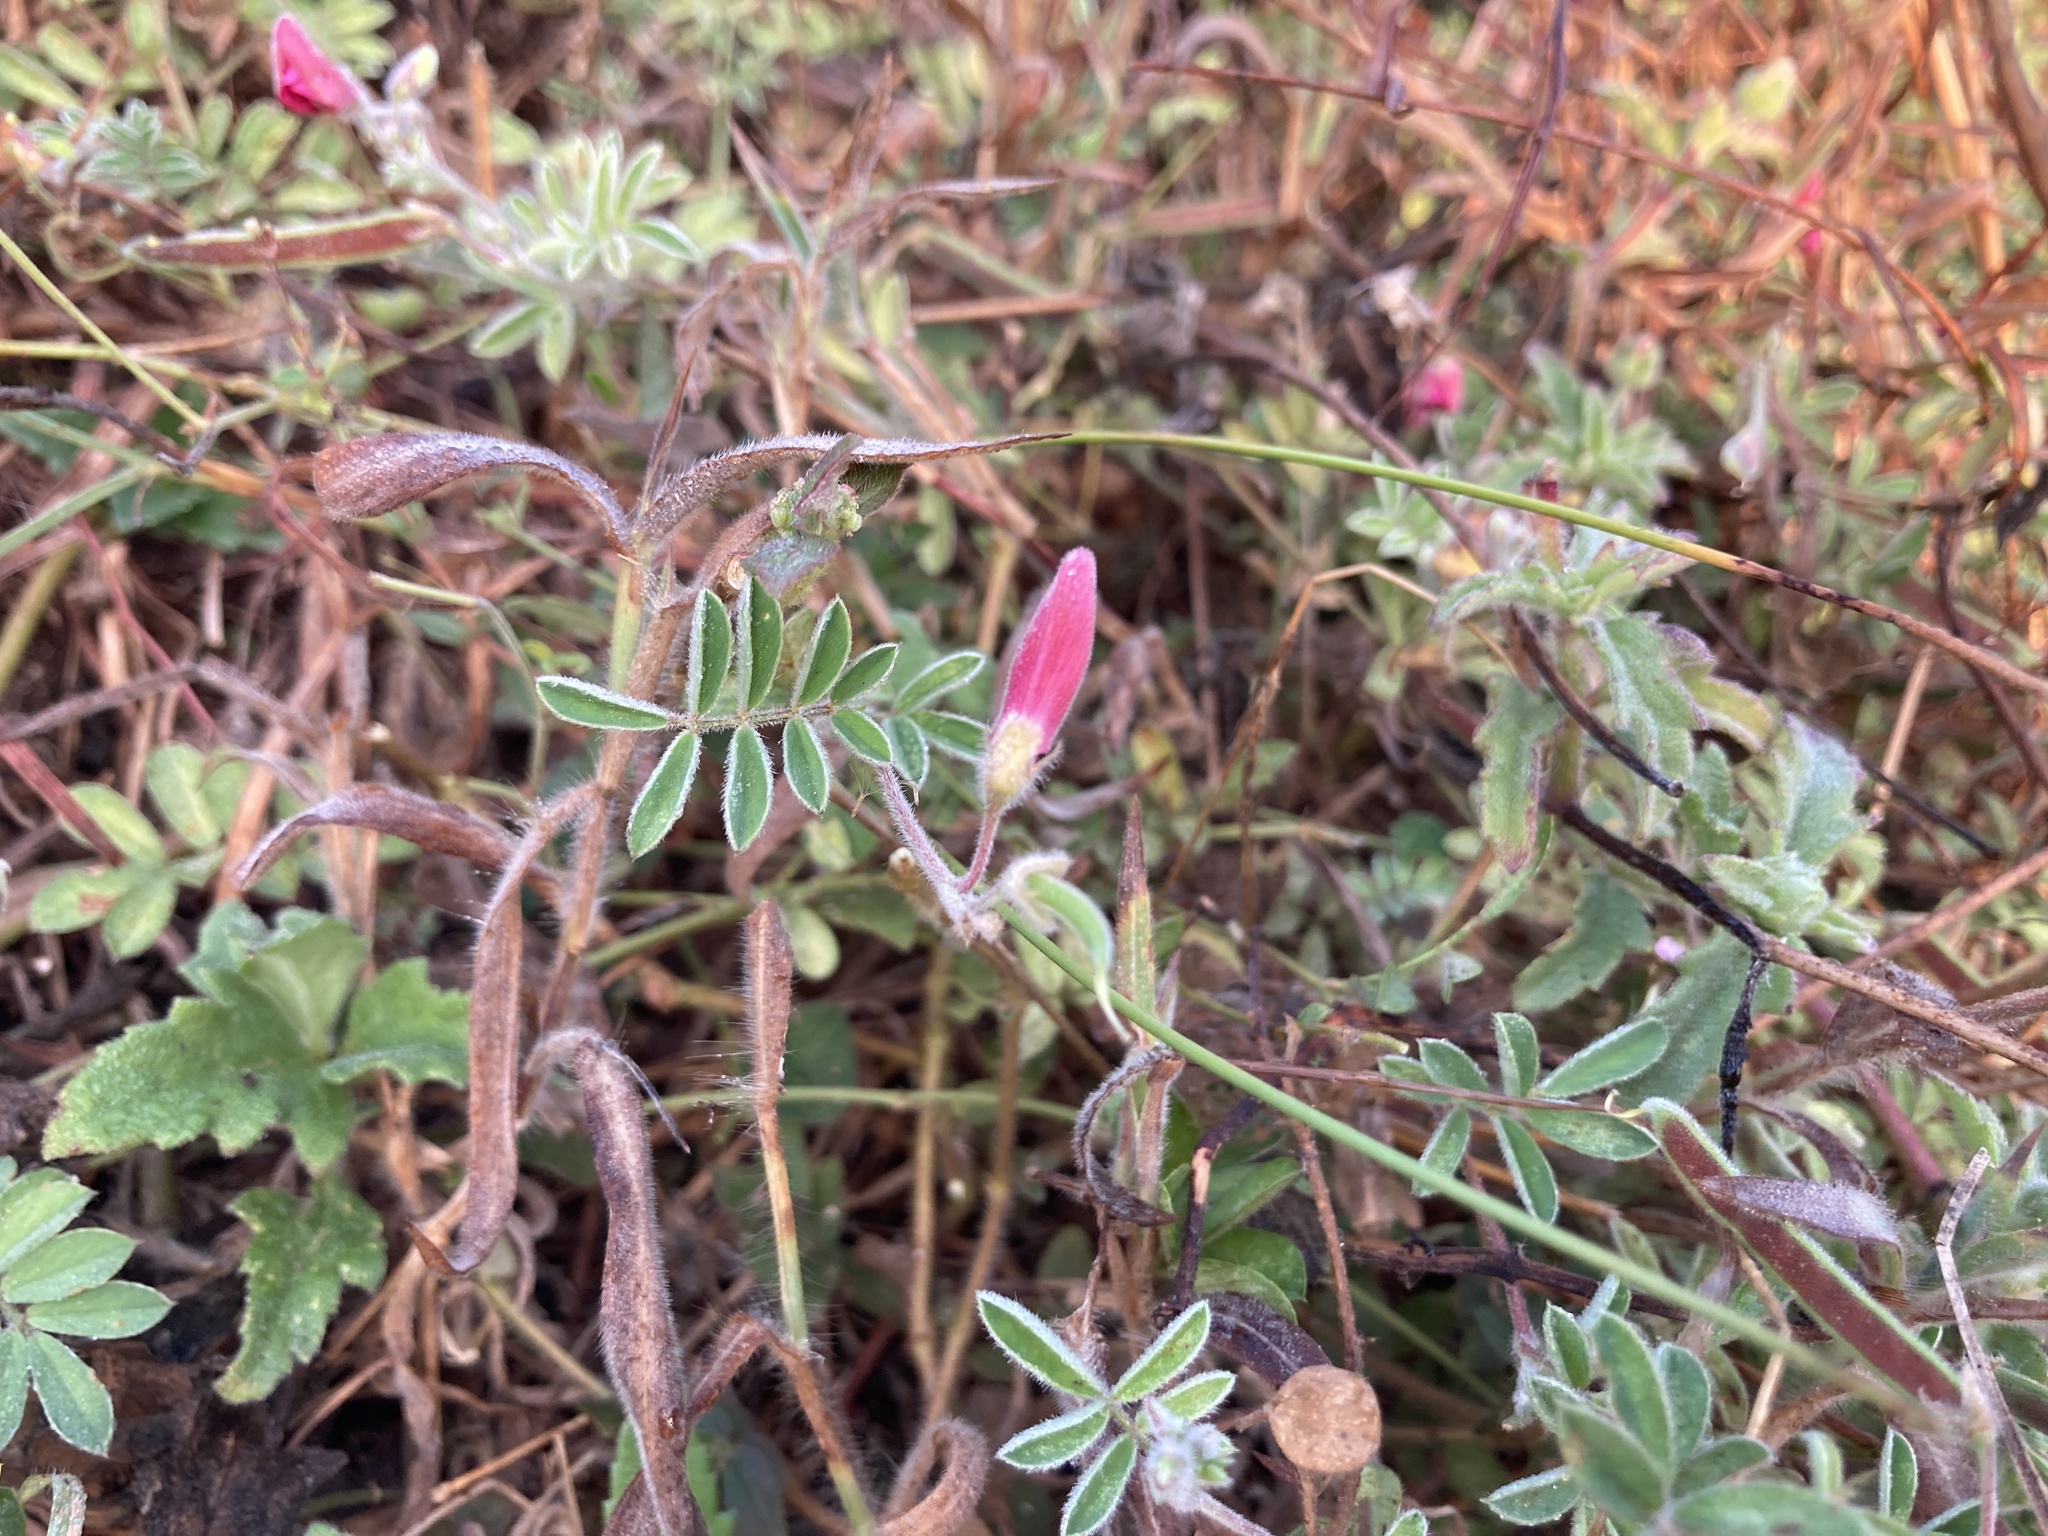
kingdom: Plantae
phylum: Tracheophyta
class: Magnoliopsida
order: Fabales
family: Fabaceae
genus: Tephrosia
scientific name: Tephrosia obovata
